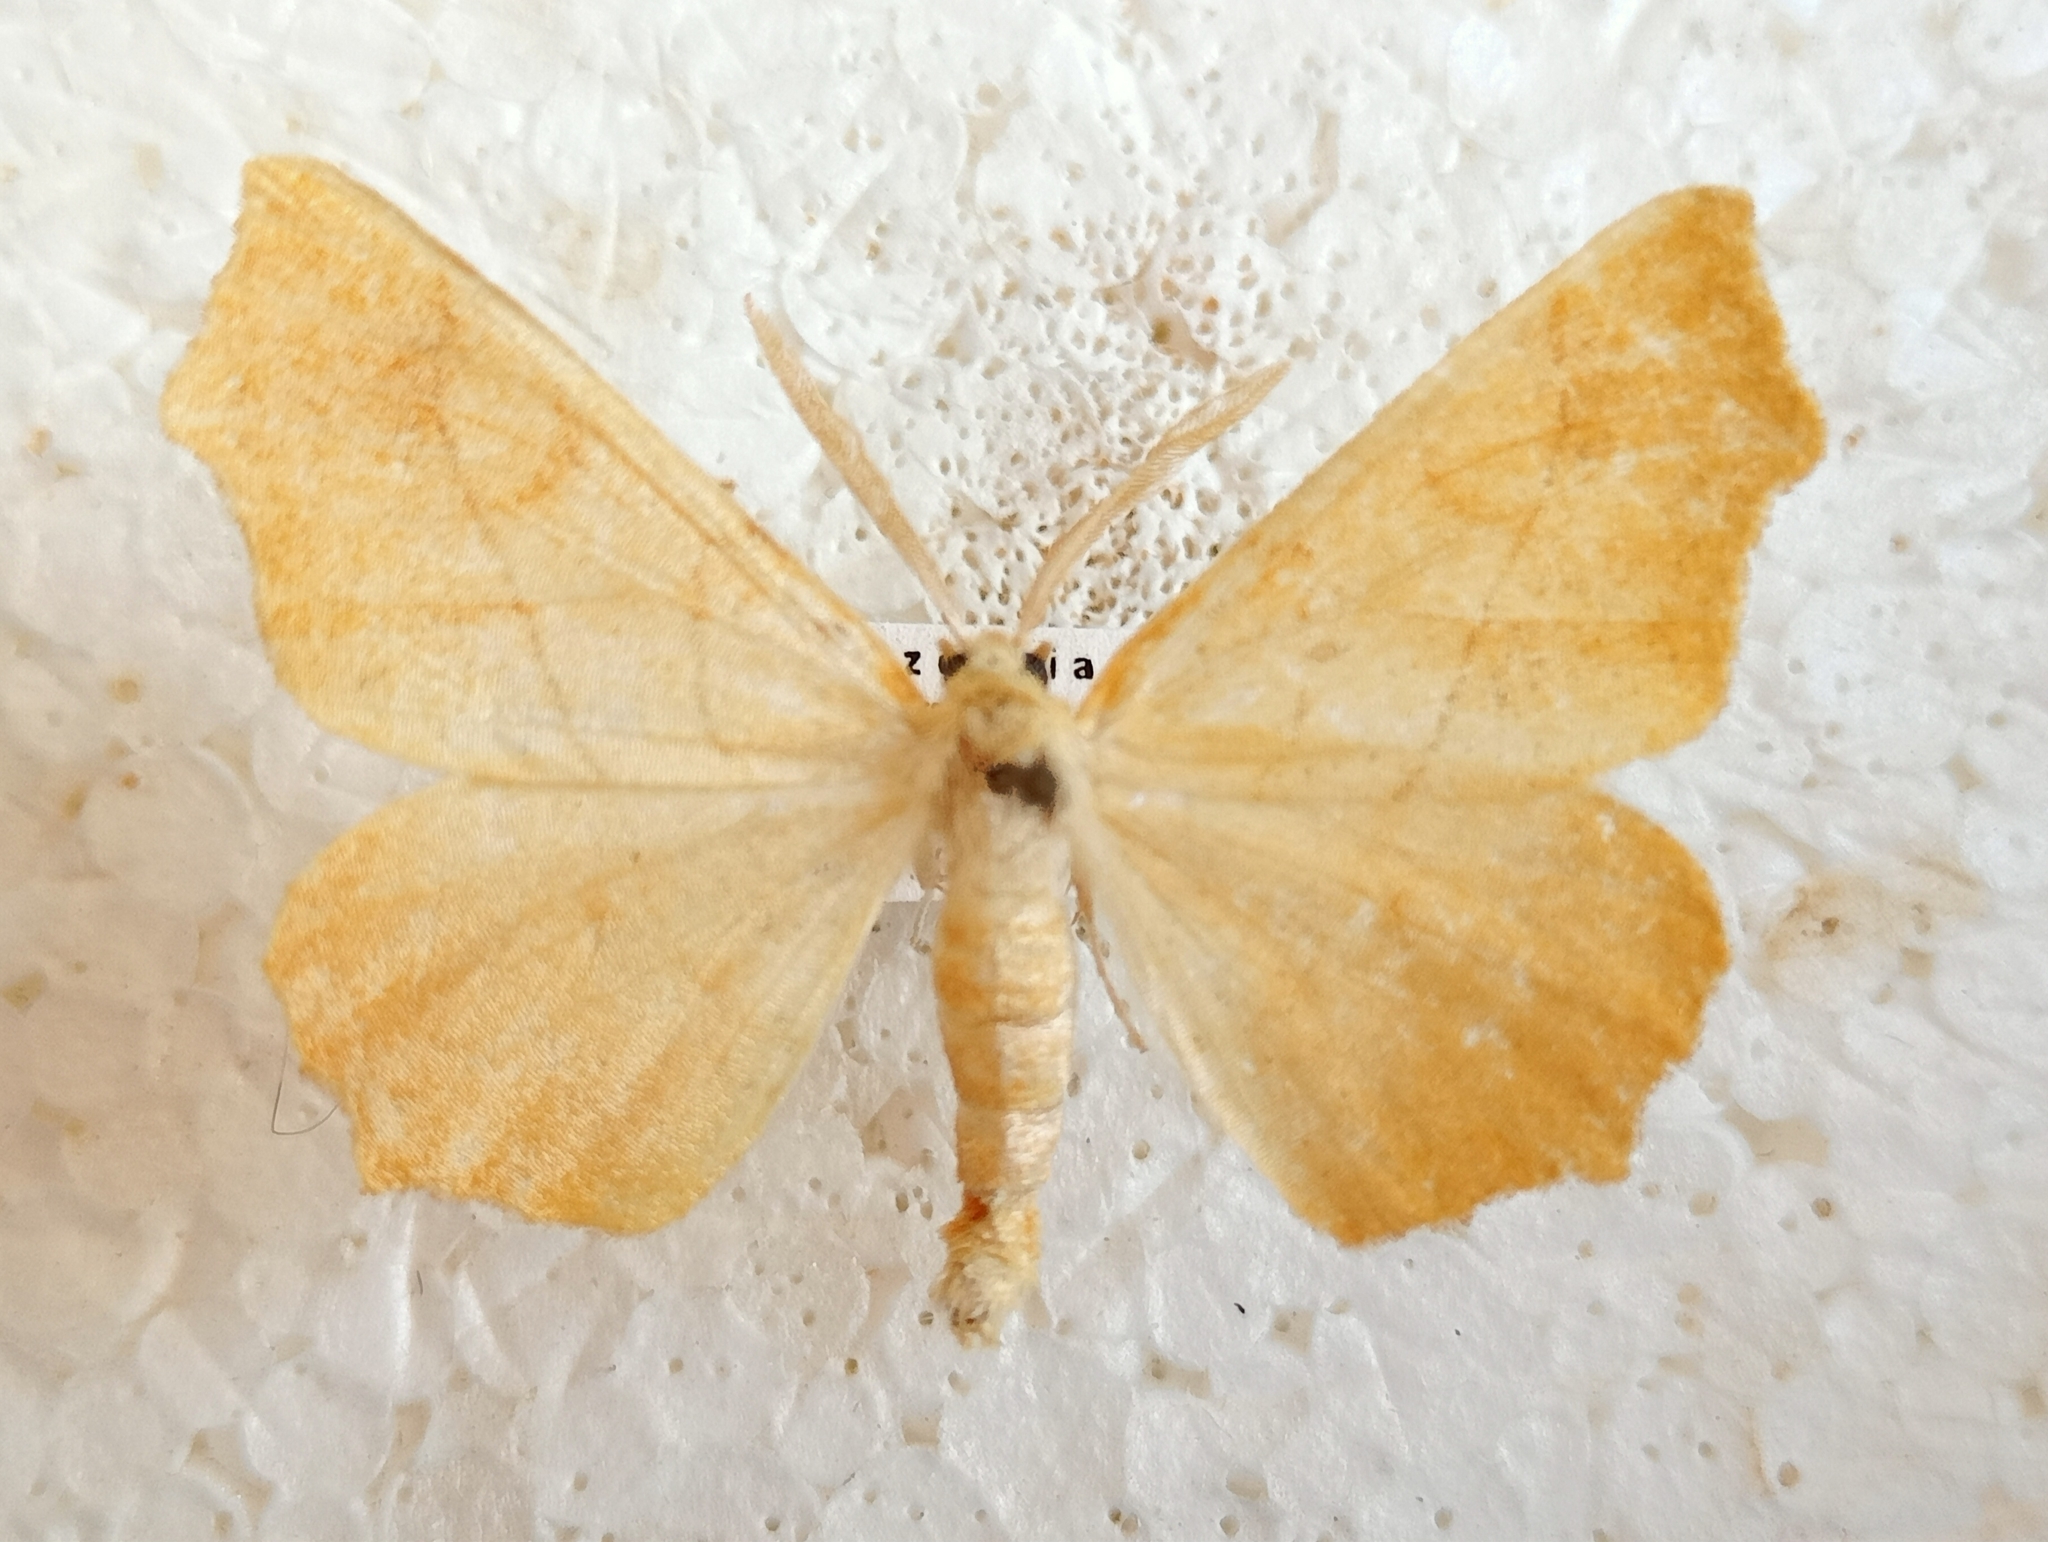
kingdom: Animalia
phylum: Arthropoda
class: Insecta
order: Lepidoptera
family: Geometridae
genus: Ennomos
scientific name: Ennomos quercinaria
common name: August thorn
